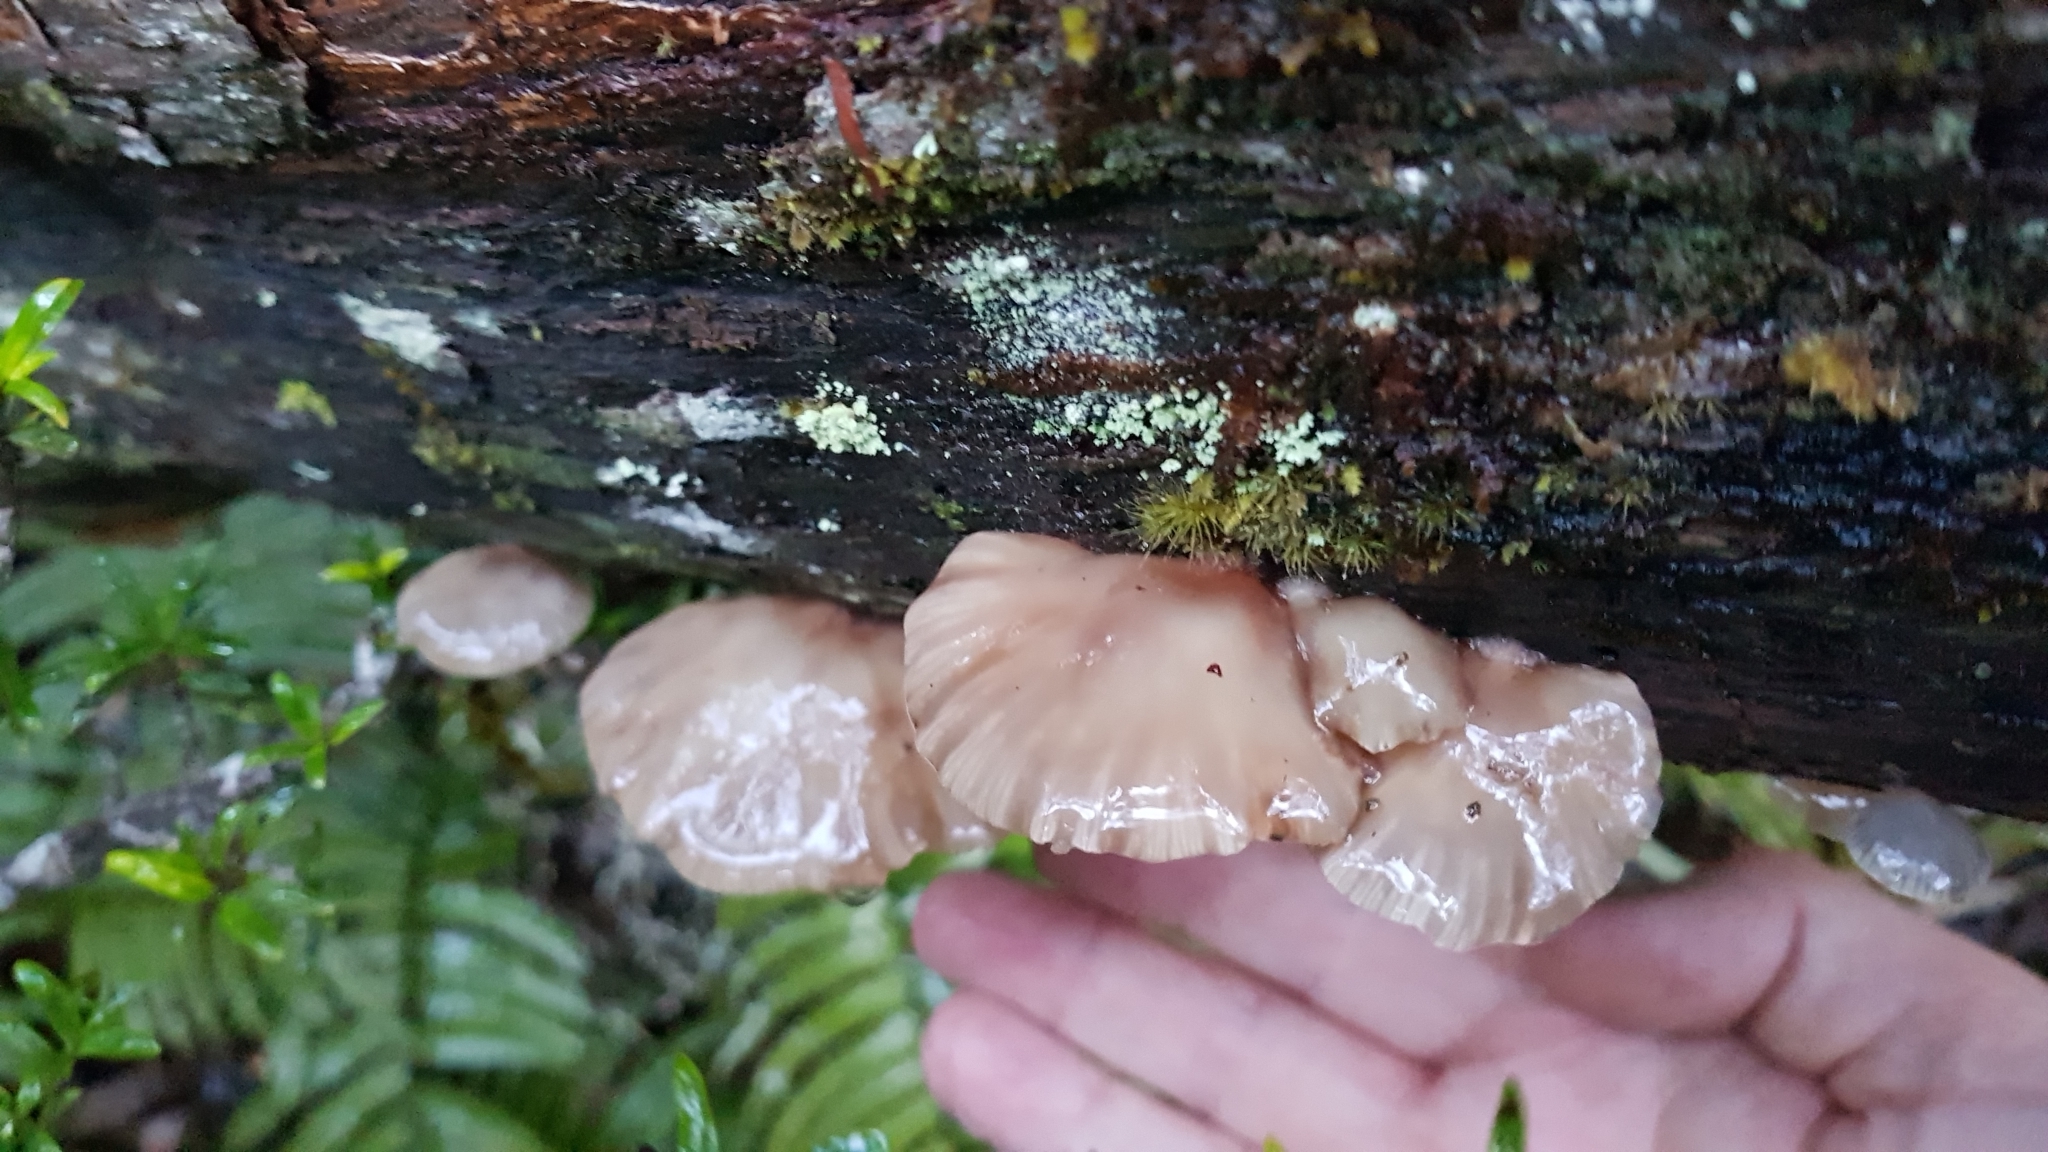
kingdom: Fungi
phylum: Basidiomycota
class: Agaricomycetes
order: Agaricales
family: Mycenaceae
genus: Panellus
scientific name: Panellus longinquus
